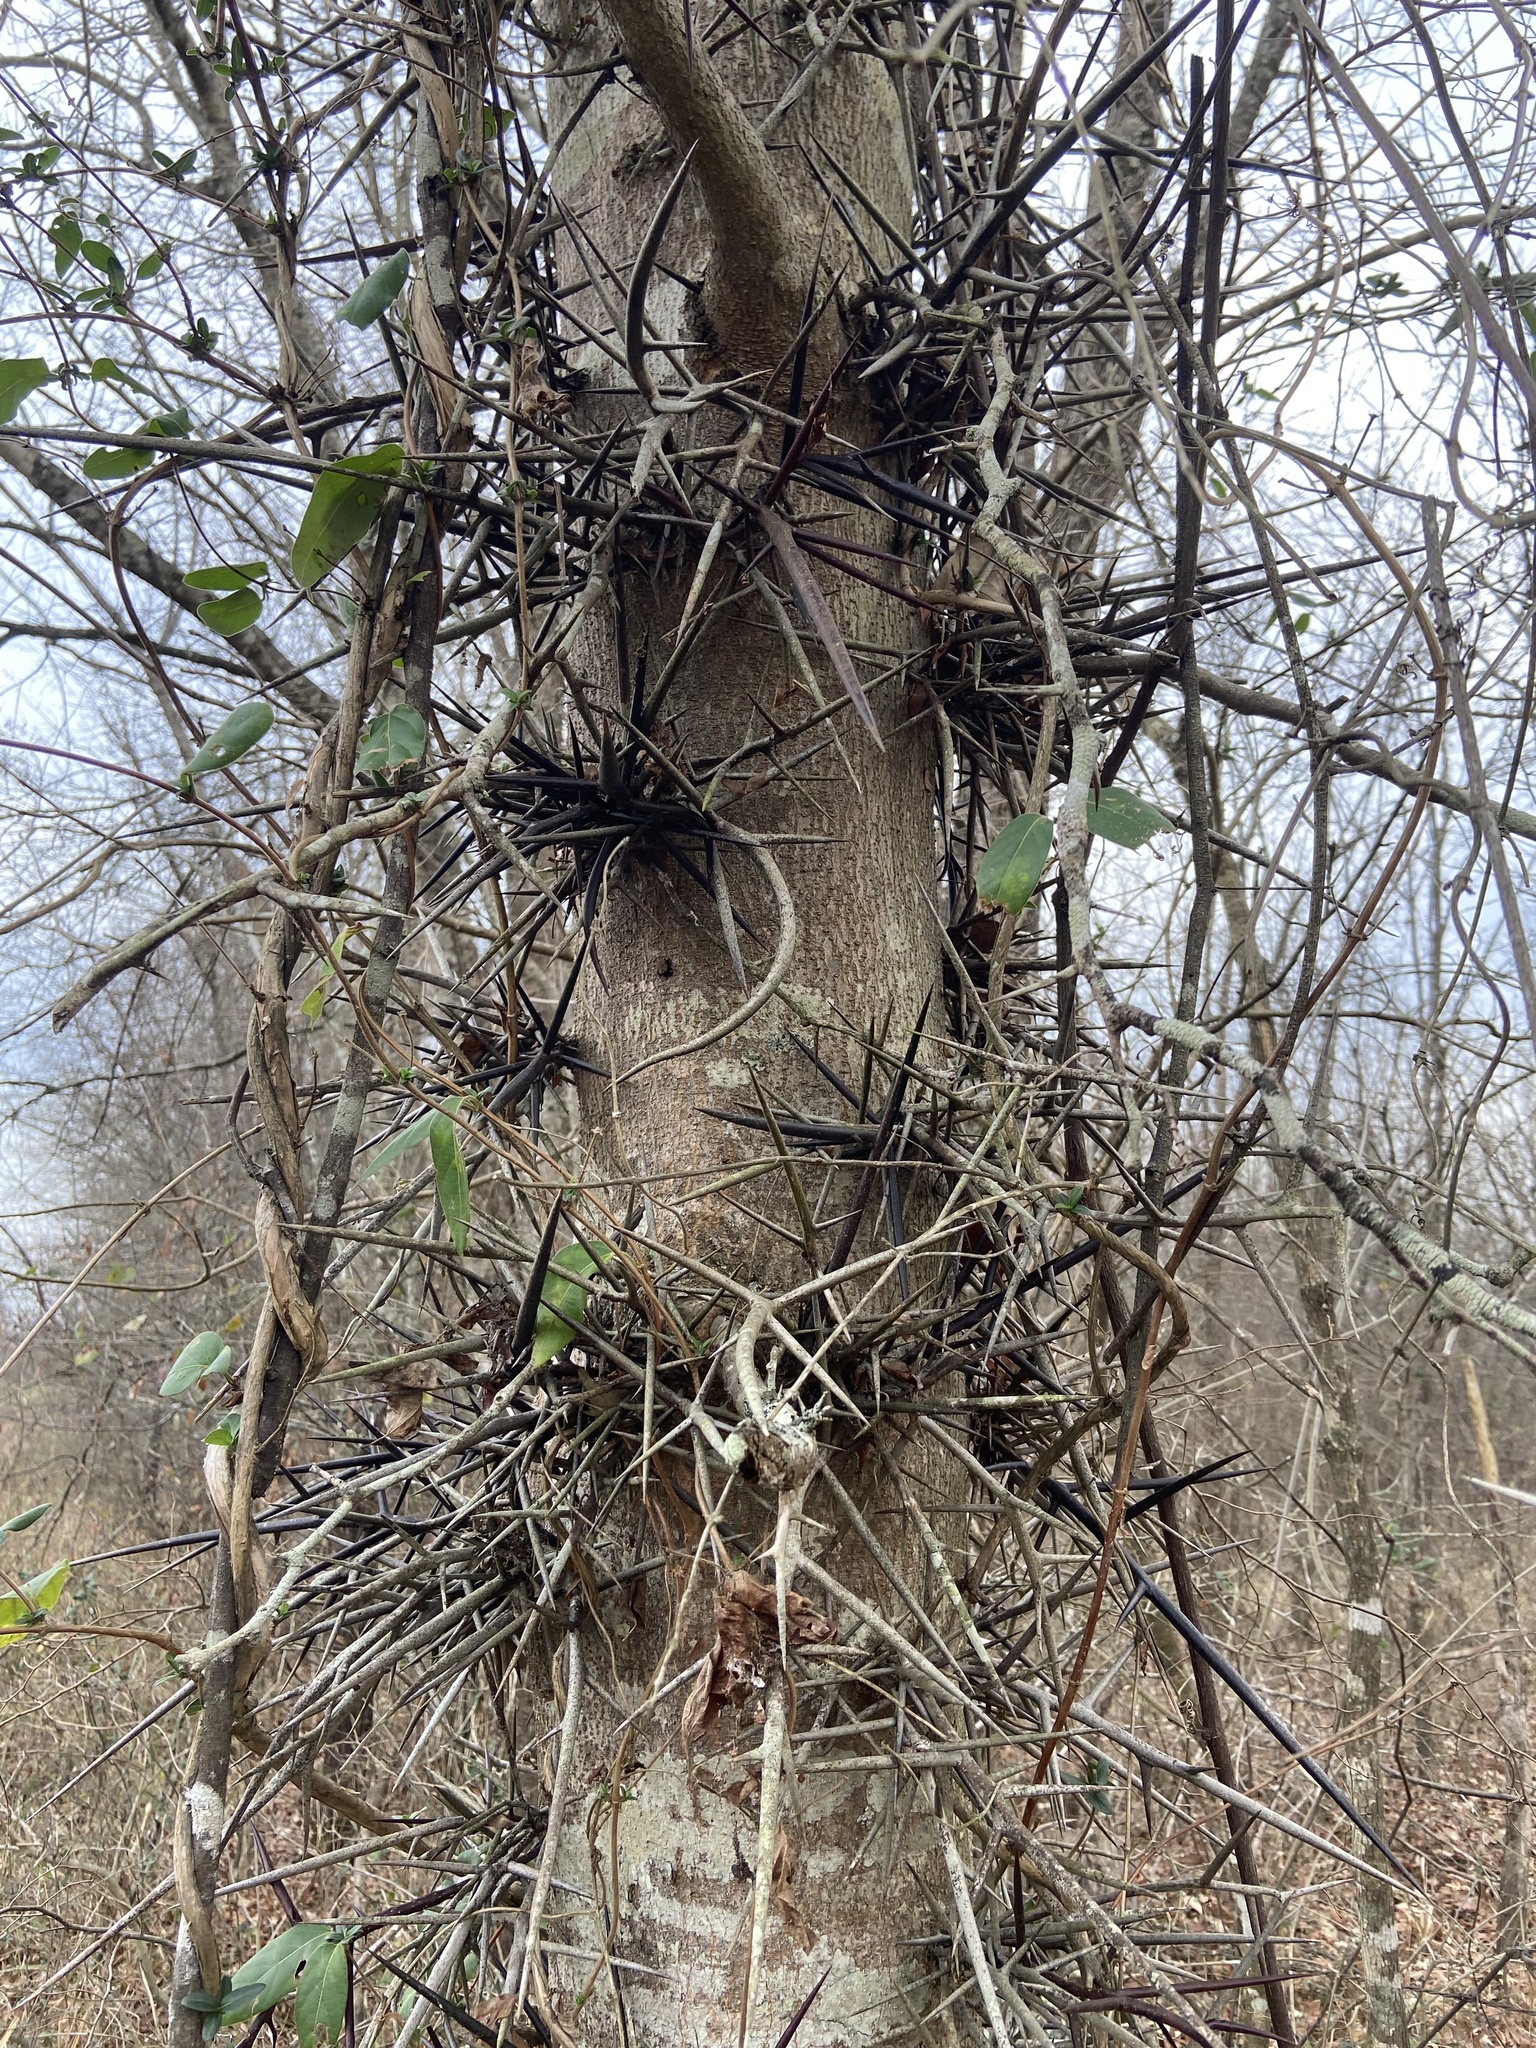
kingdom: Fungi
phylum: Basidiomycota
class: Agaricomycetes
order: Agaricales
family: Pleurotaceae
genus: Pleurotus
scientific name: Pleurotus ostreatus
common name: Oyster mushroom
